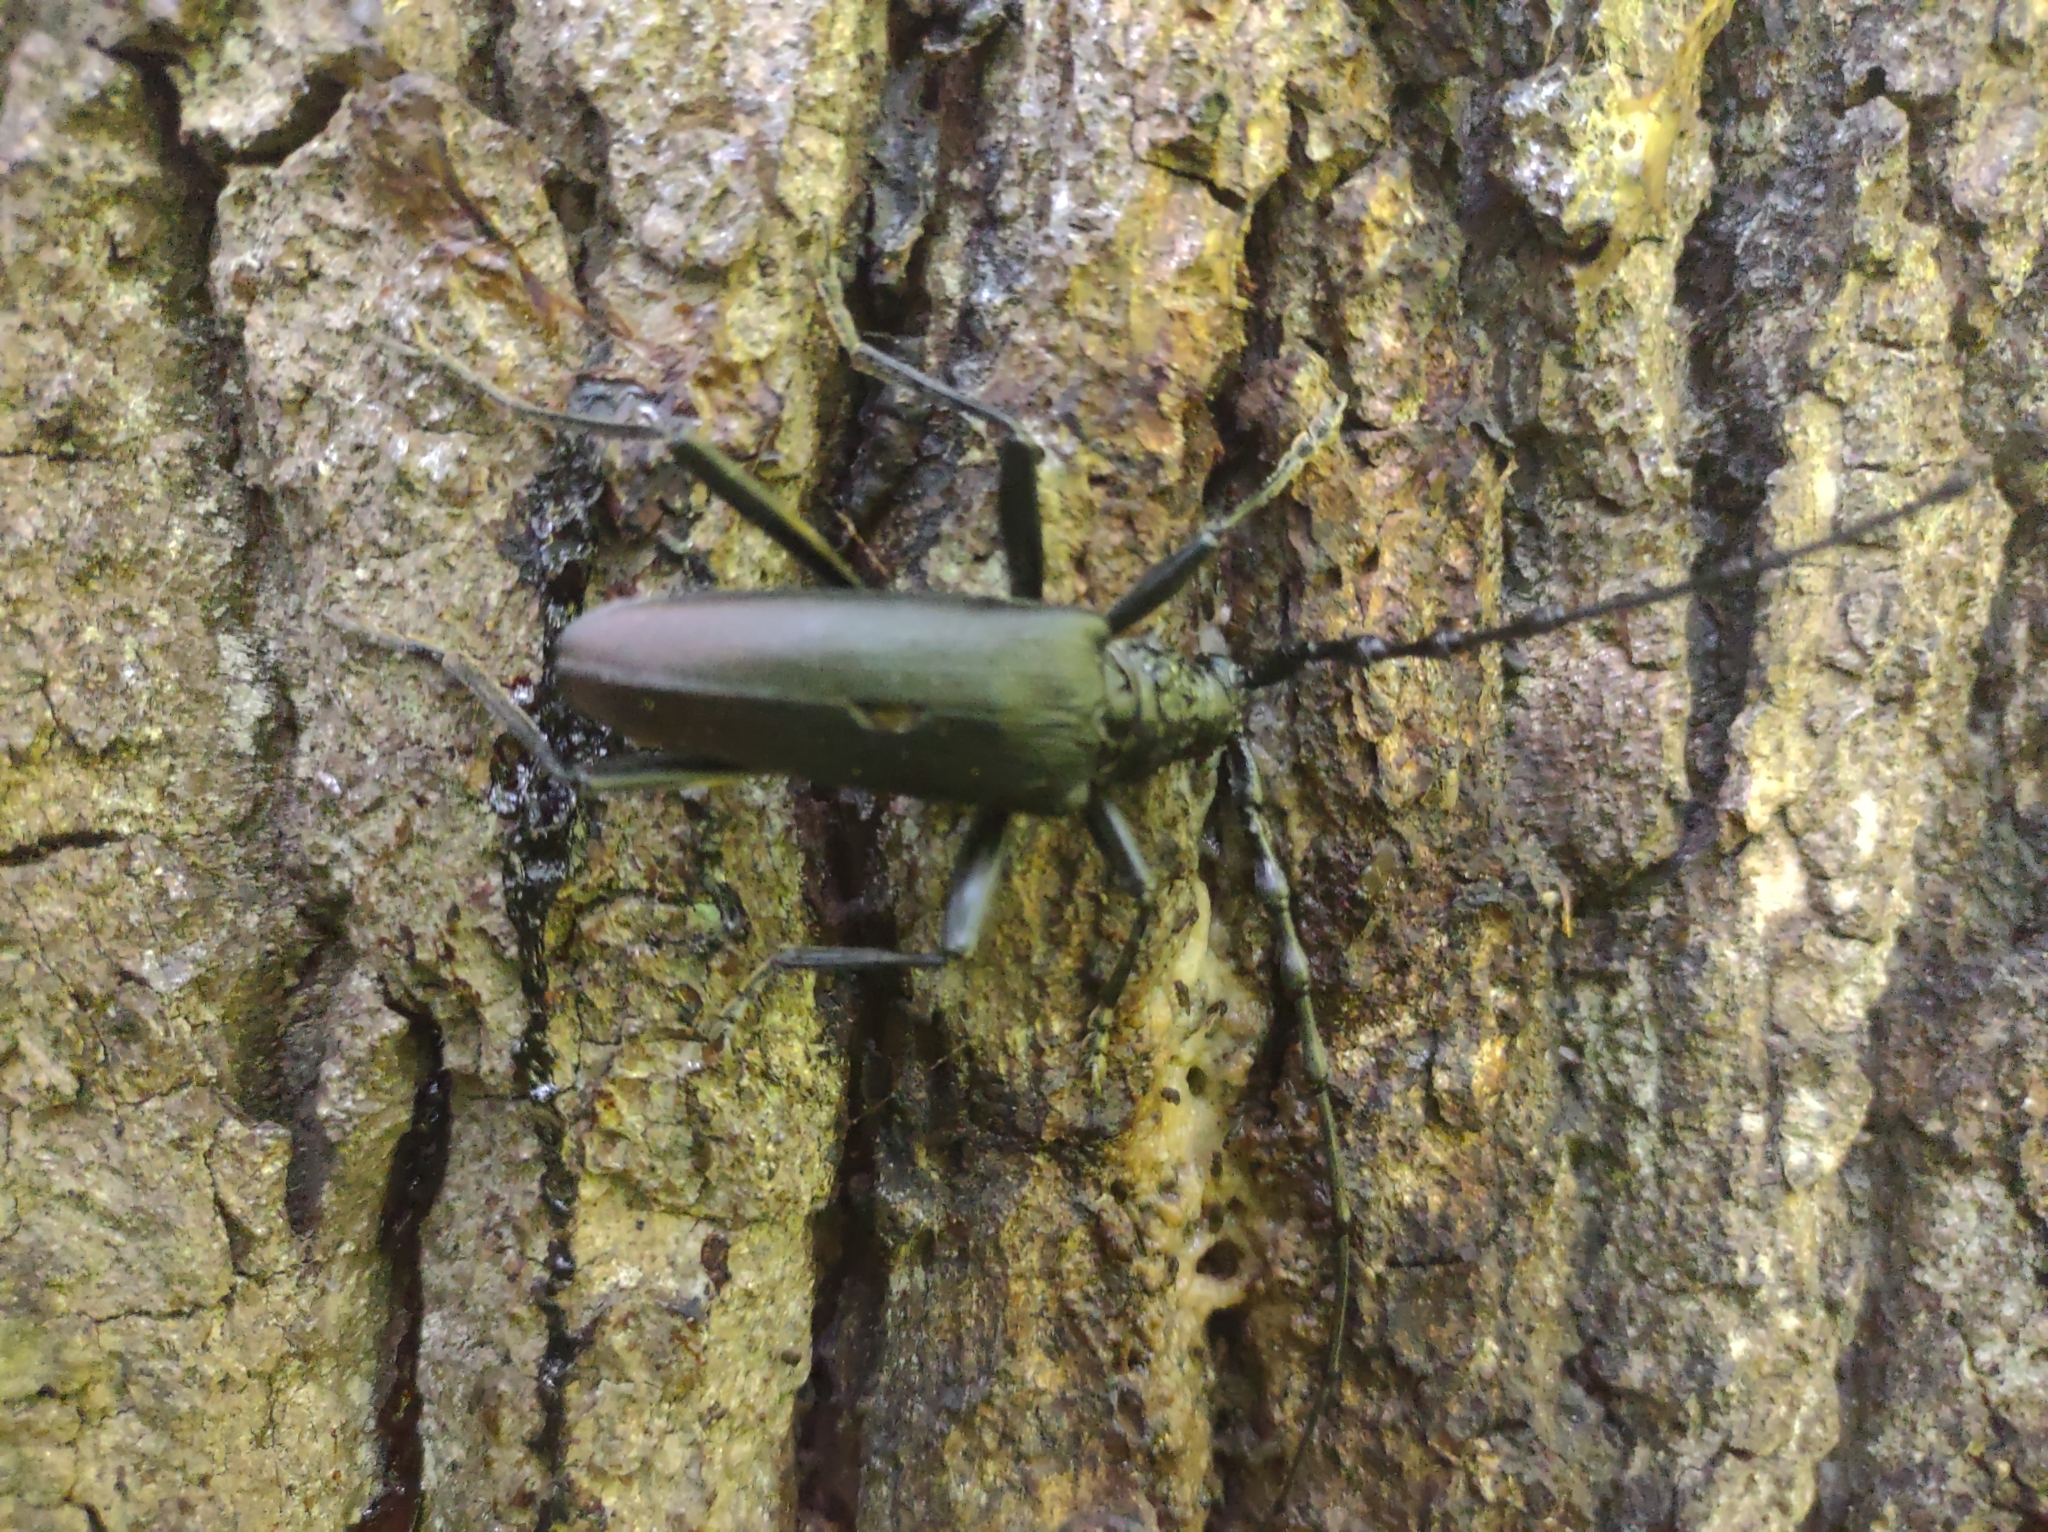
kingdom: Animalia
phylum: Arthropoda
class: Insecta
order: Coleoptera
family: Cerambycidae
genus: Cerambyx
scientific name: Cerambyx cerdo
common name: Cerambyx longicorn
